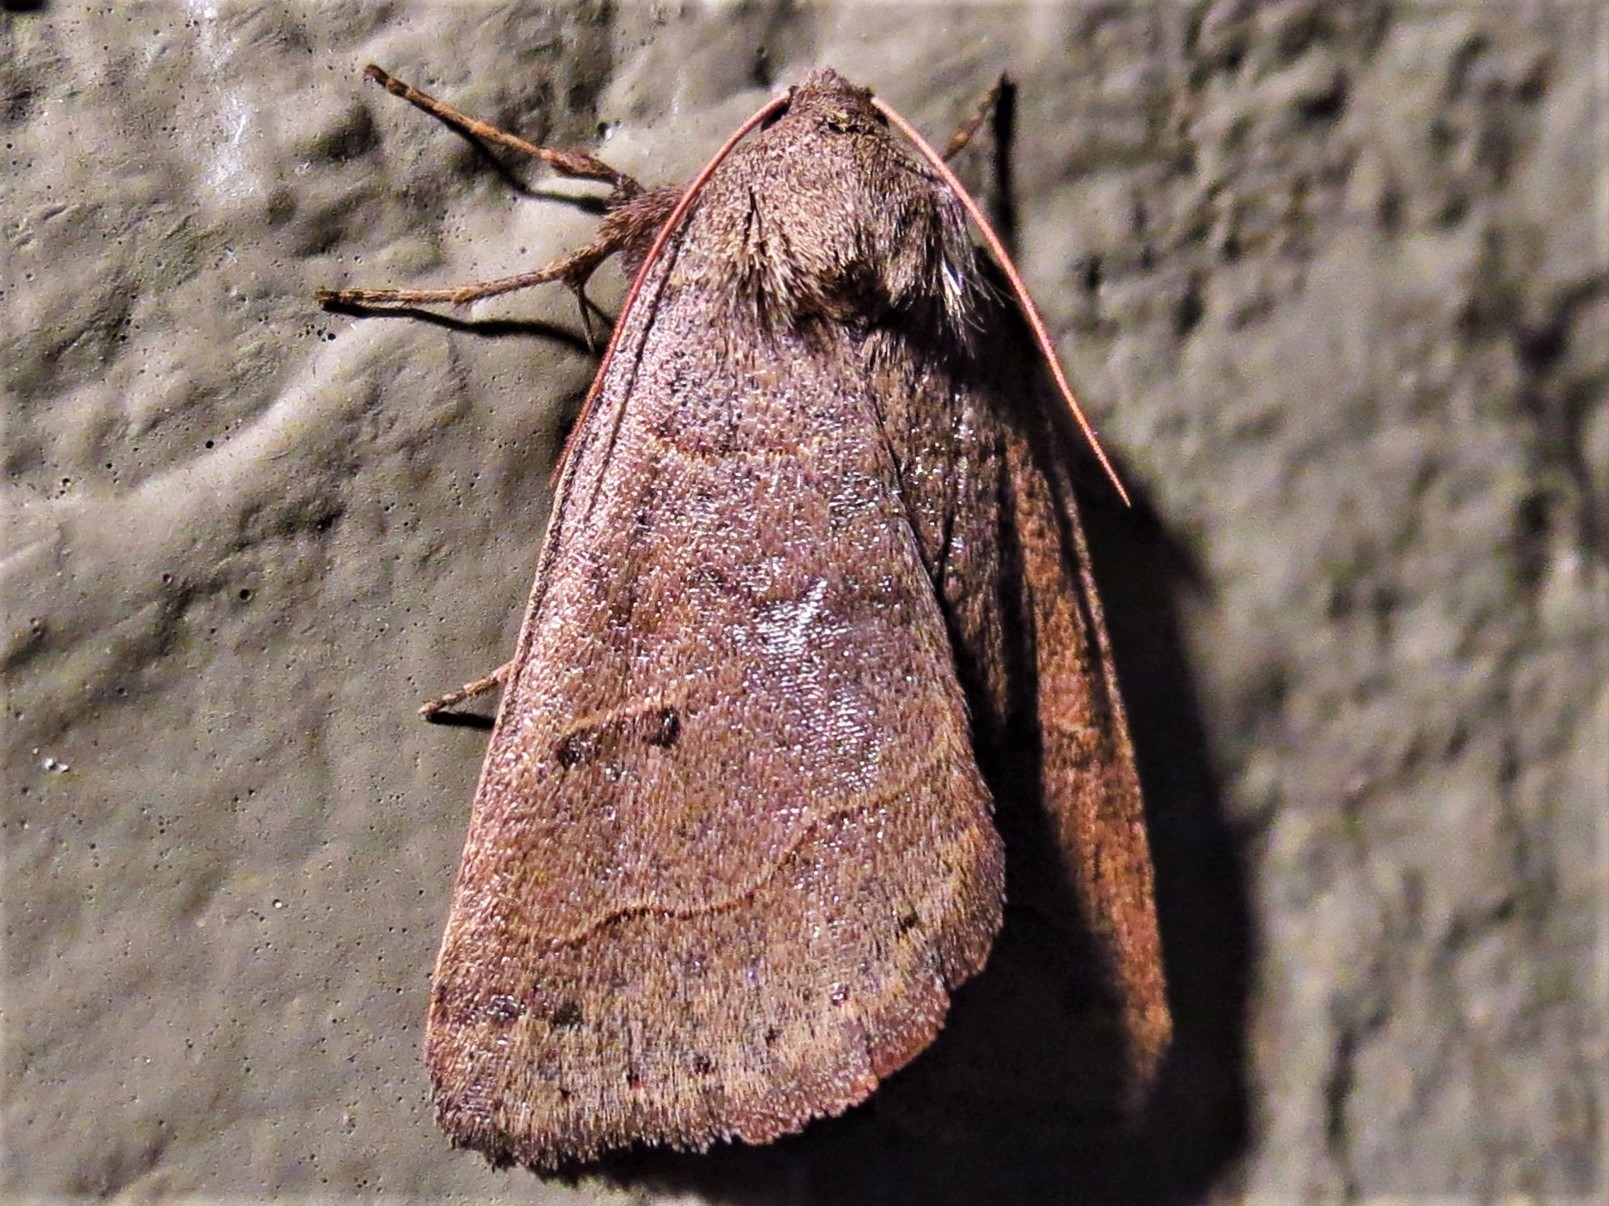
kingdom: Animalia
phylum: Arthropoda
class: Insecta
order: Lepidoptera
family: Erebidae
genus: Phoberia
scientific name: Phoberia atomaris
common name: Common oak moth
